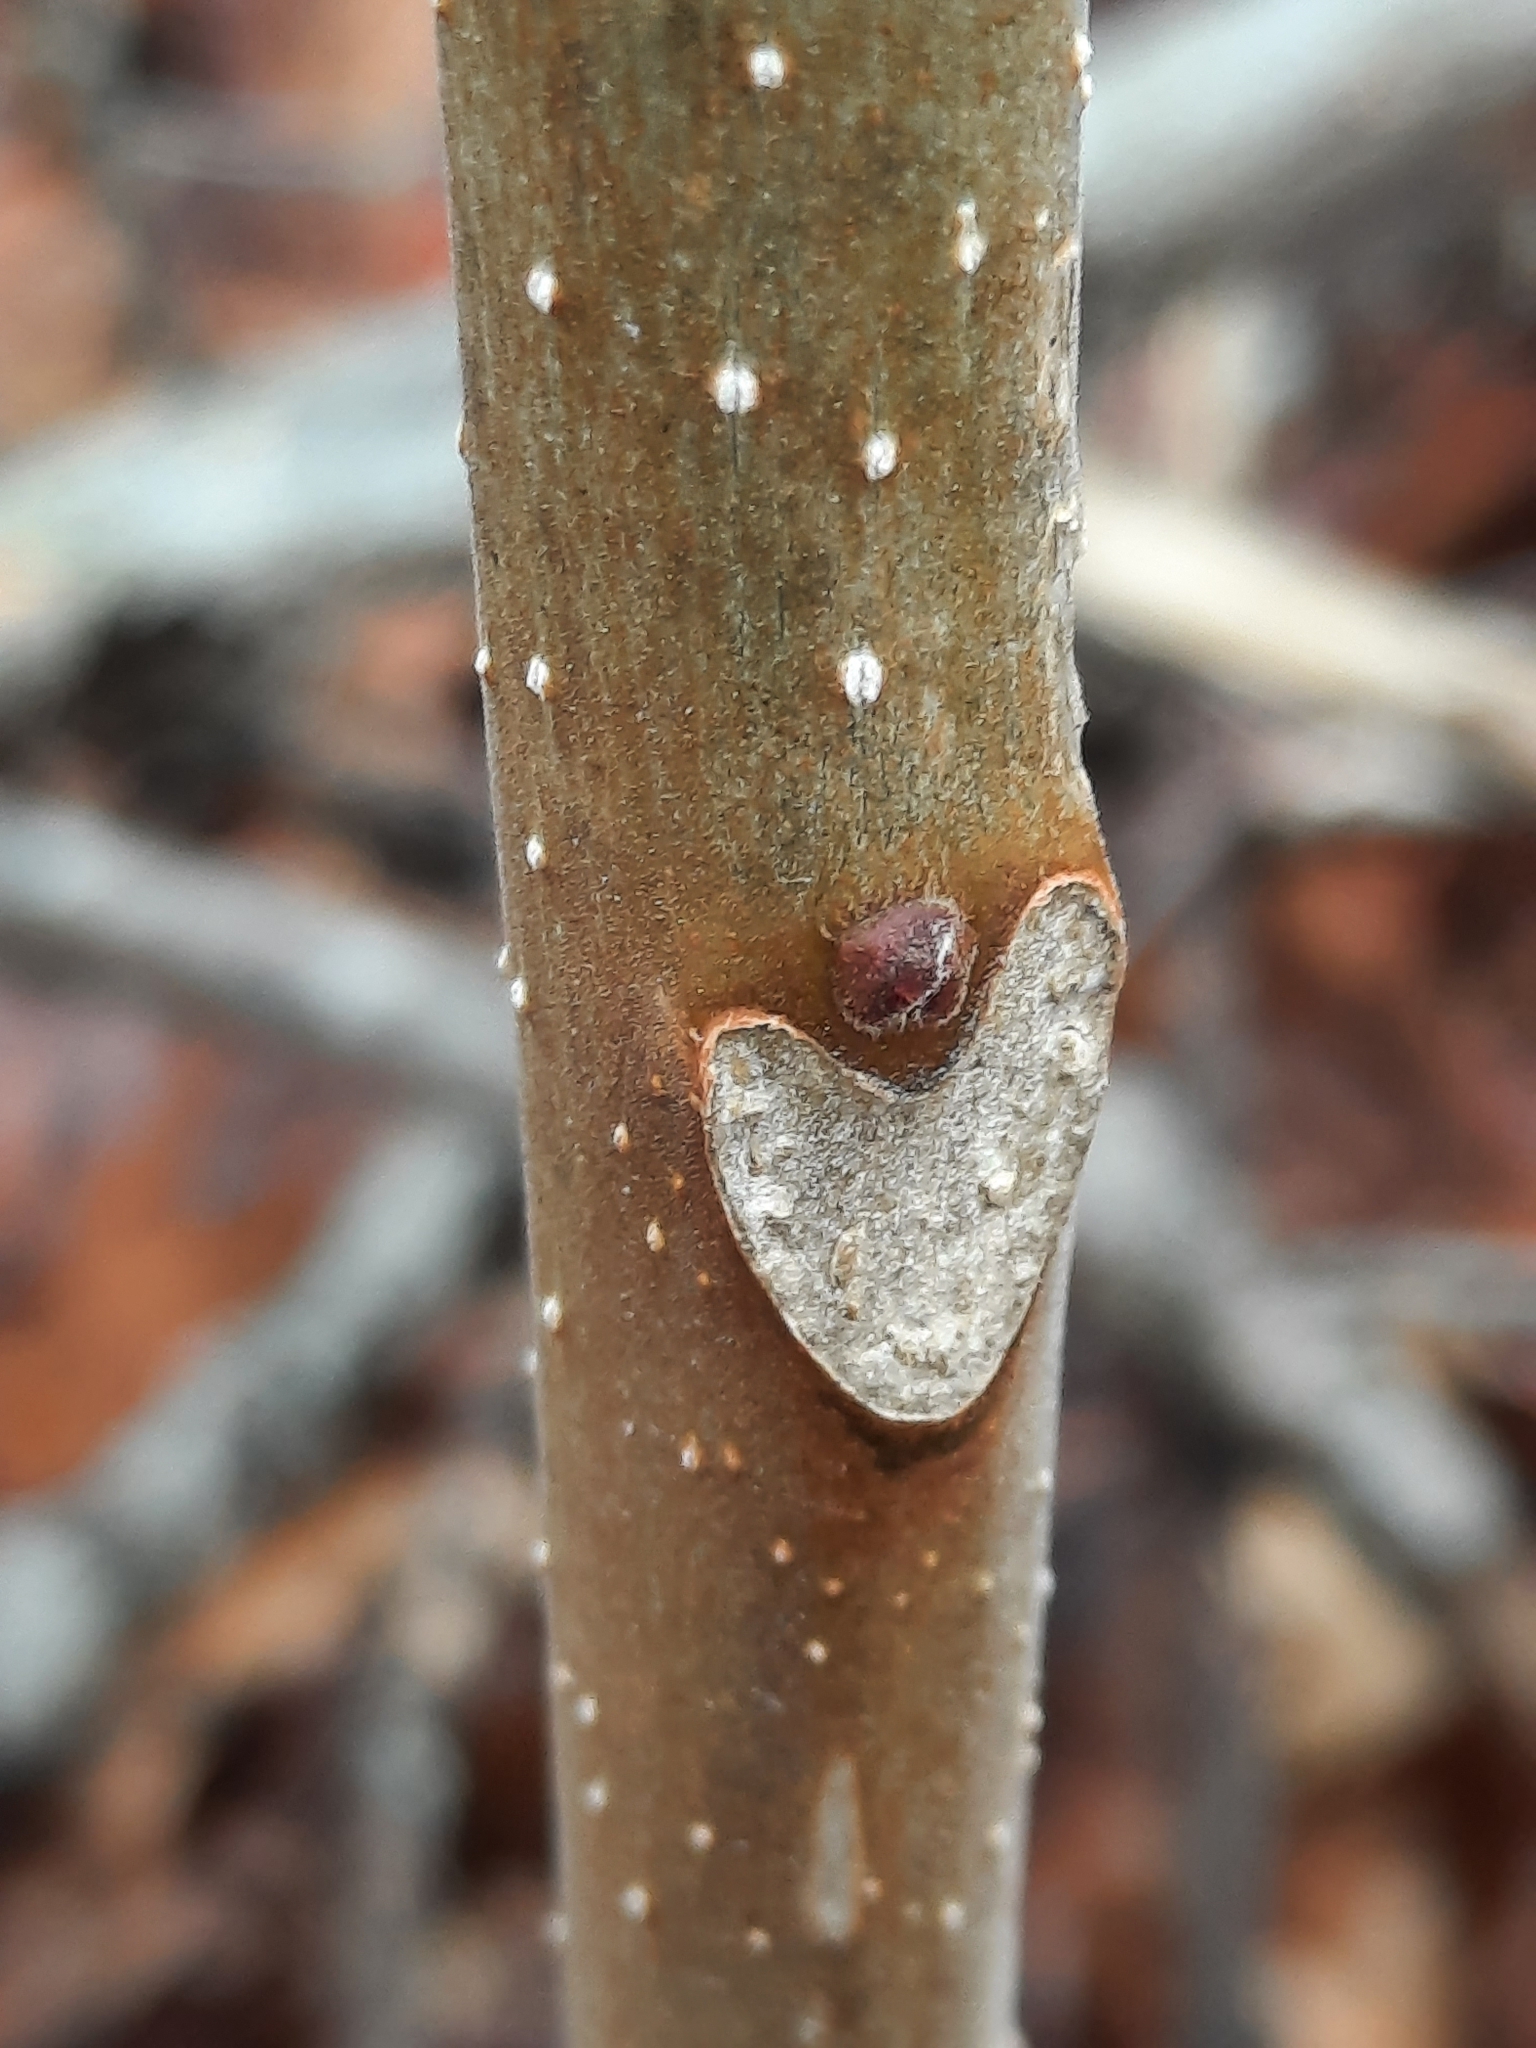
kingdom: Plantae
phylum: Tracheophyta
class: Magnoliopsida
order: Sapindales
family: Simaroubaceae
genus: Ailanthus
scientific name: Ailanthus altissima
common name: Tree-of-heaven
